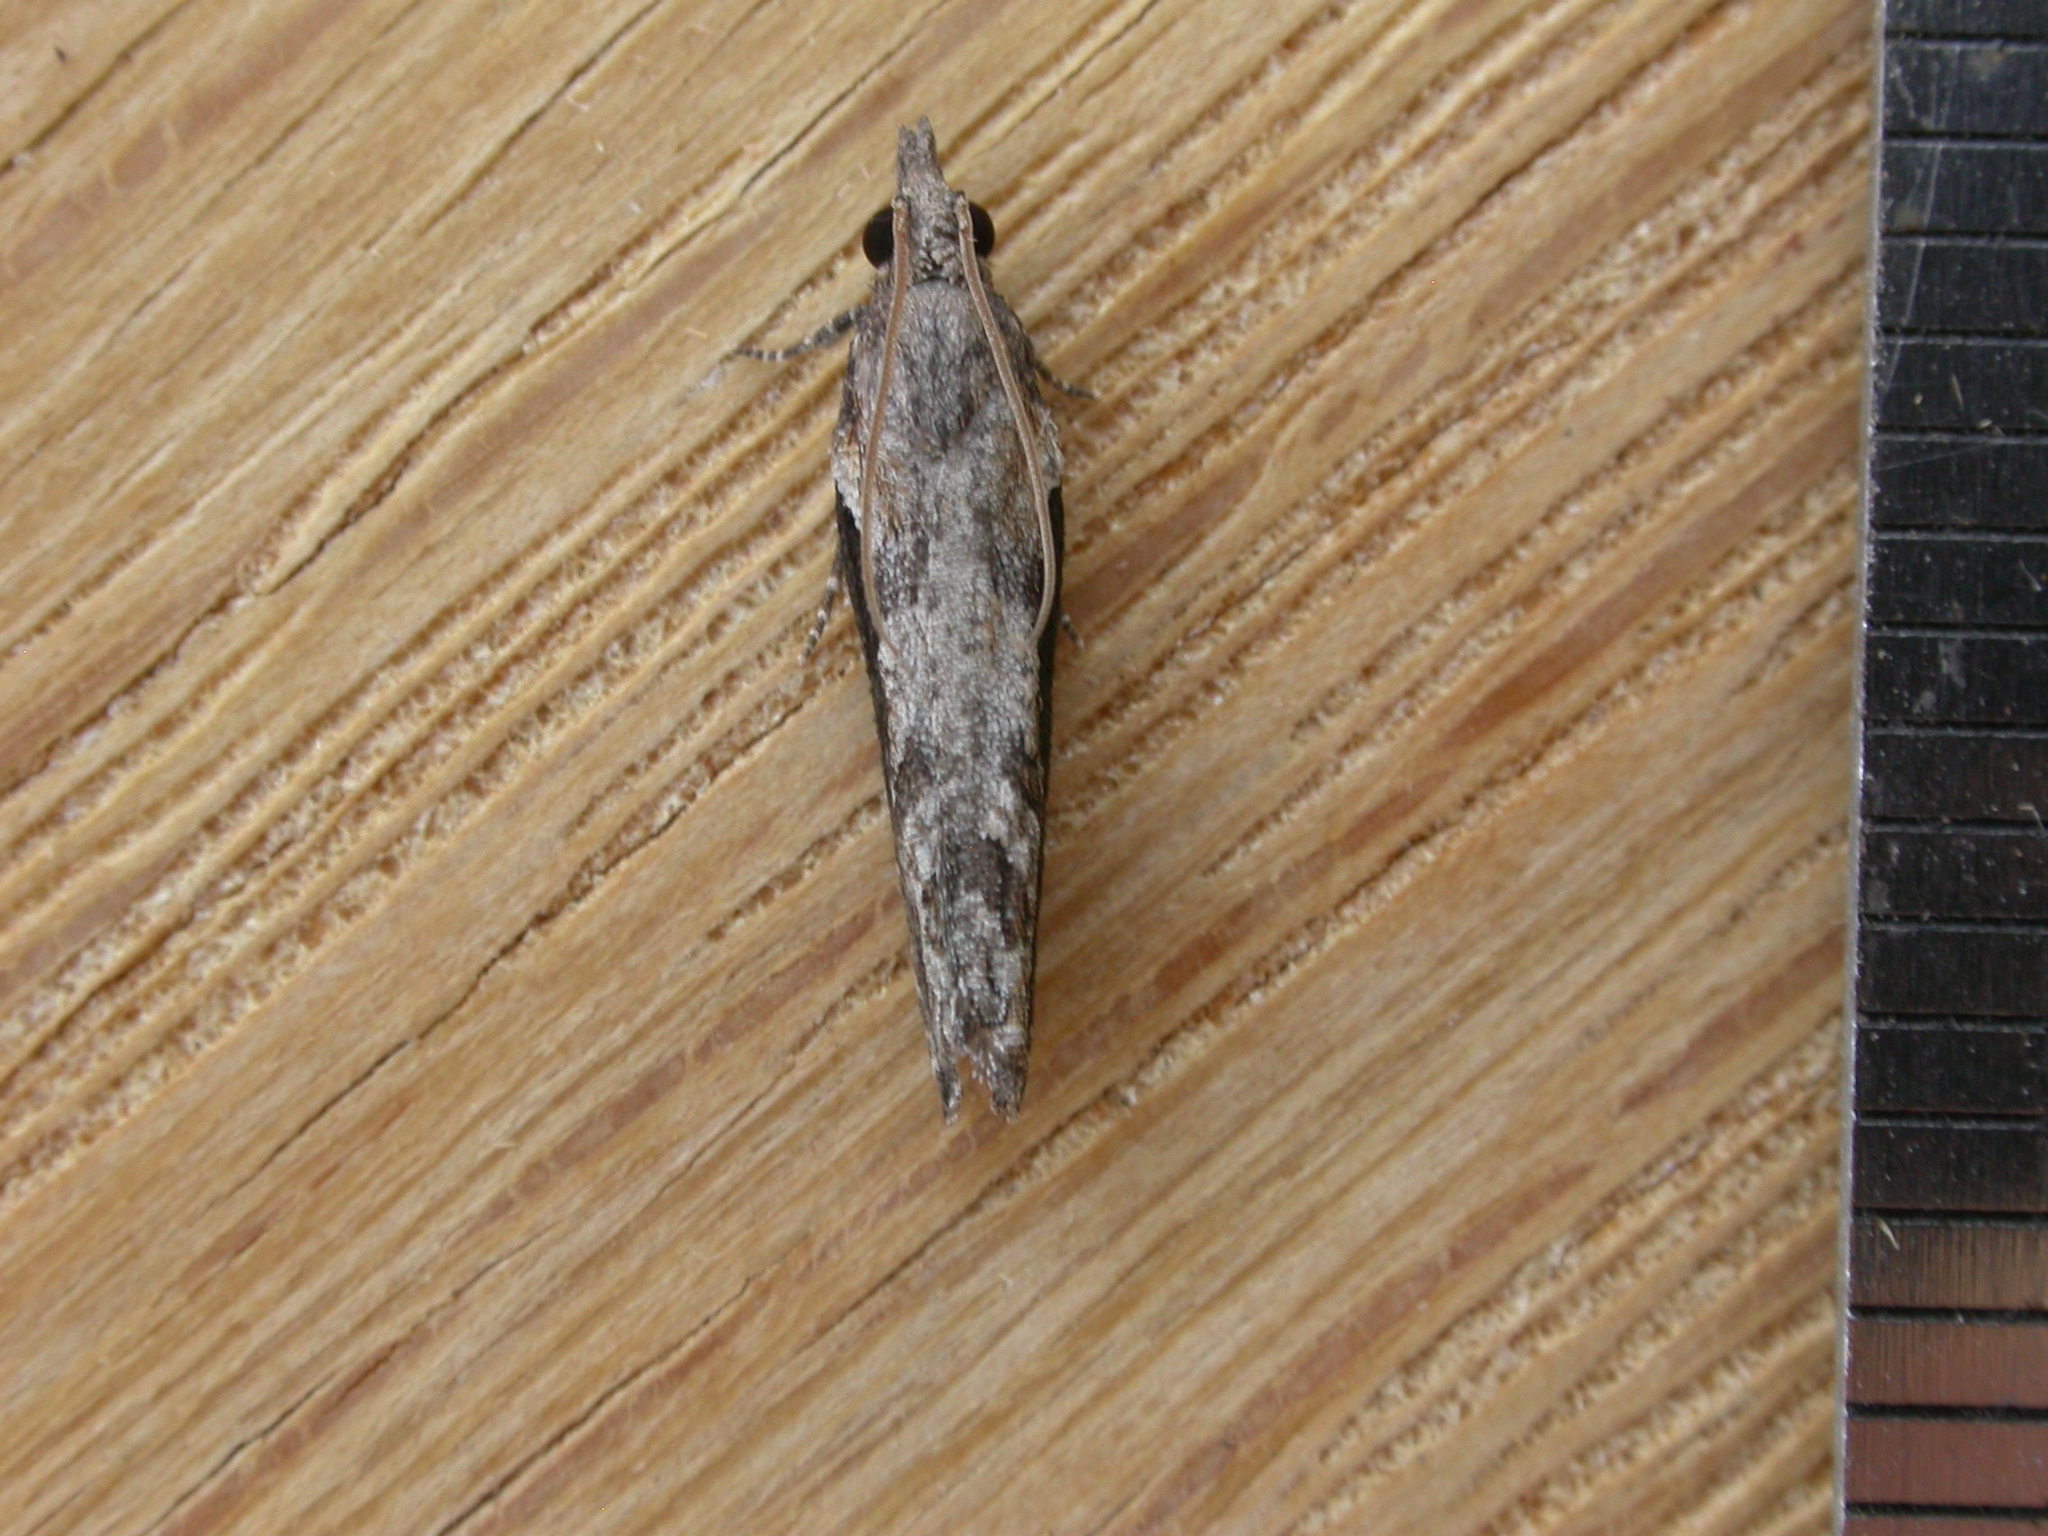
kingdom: Animalia
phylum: Arthropoda
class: Insecta
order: Lepidoptera
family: Tortricidae
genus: Strepsicrates
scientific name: Strepsicrates infensa
